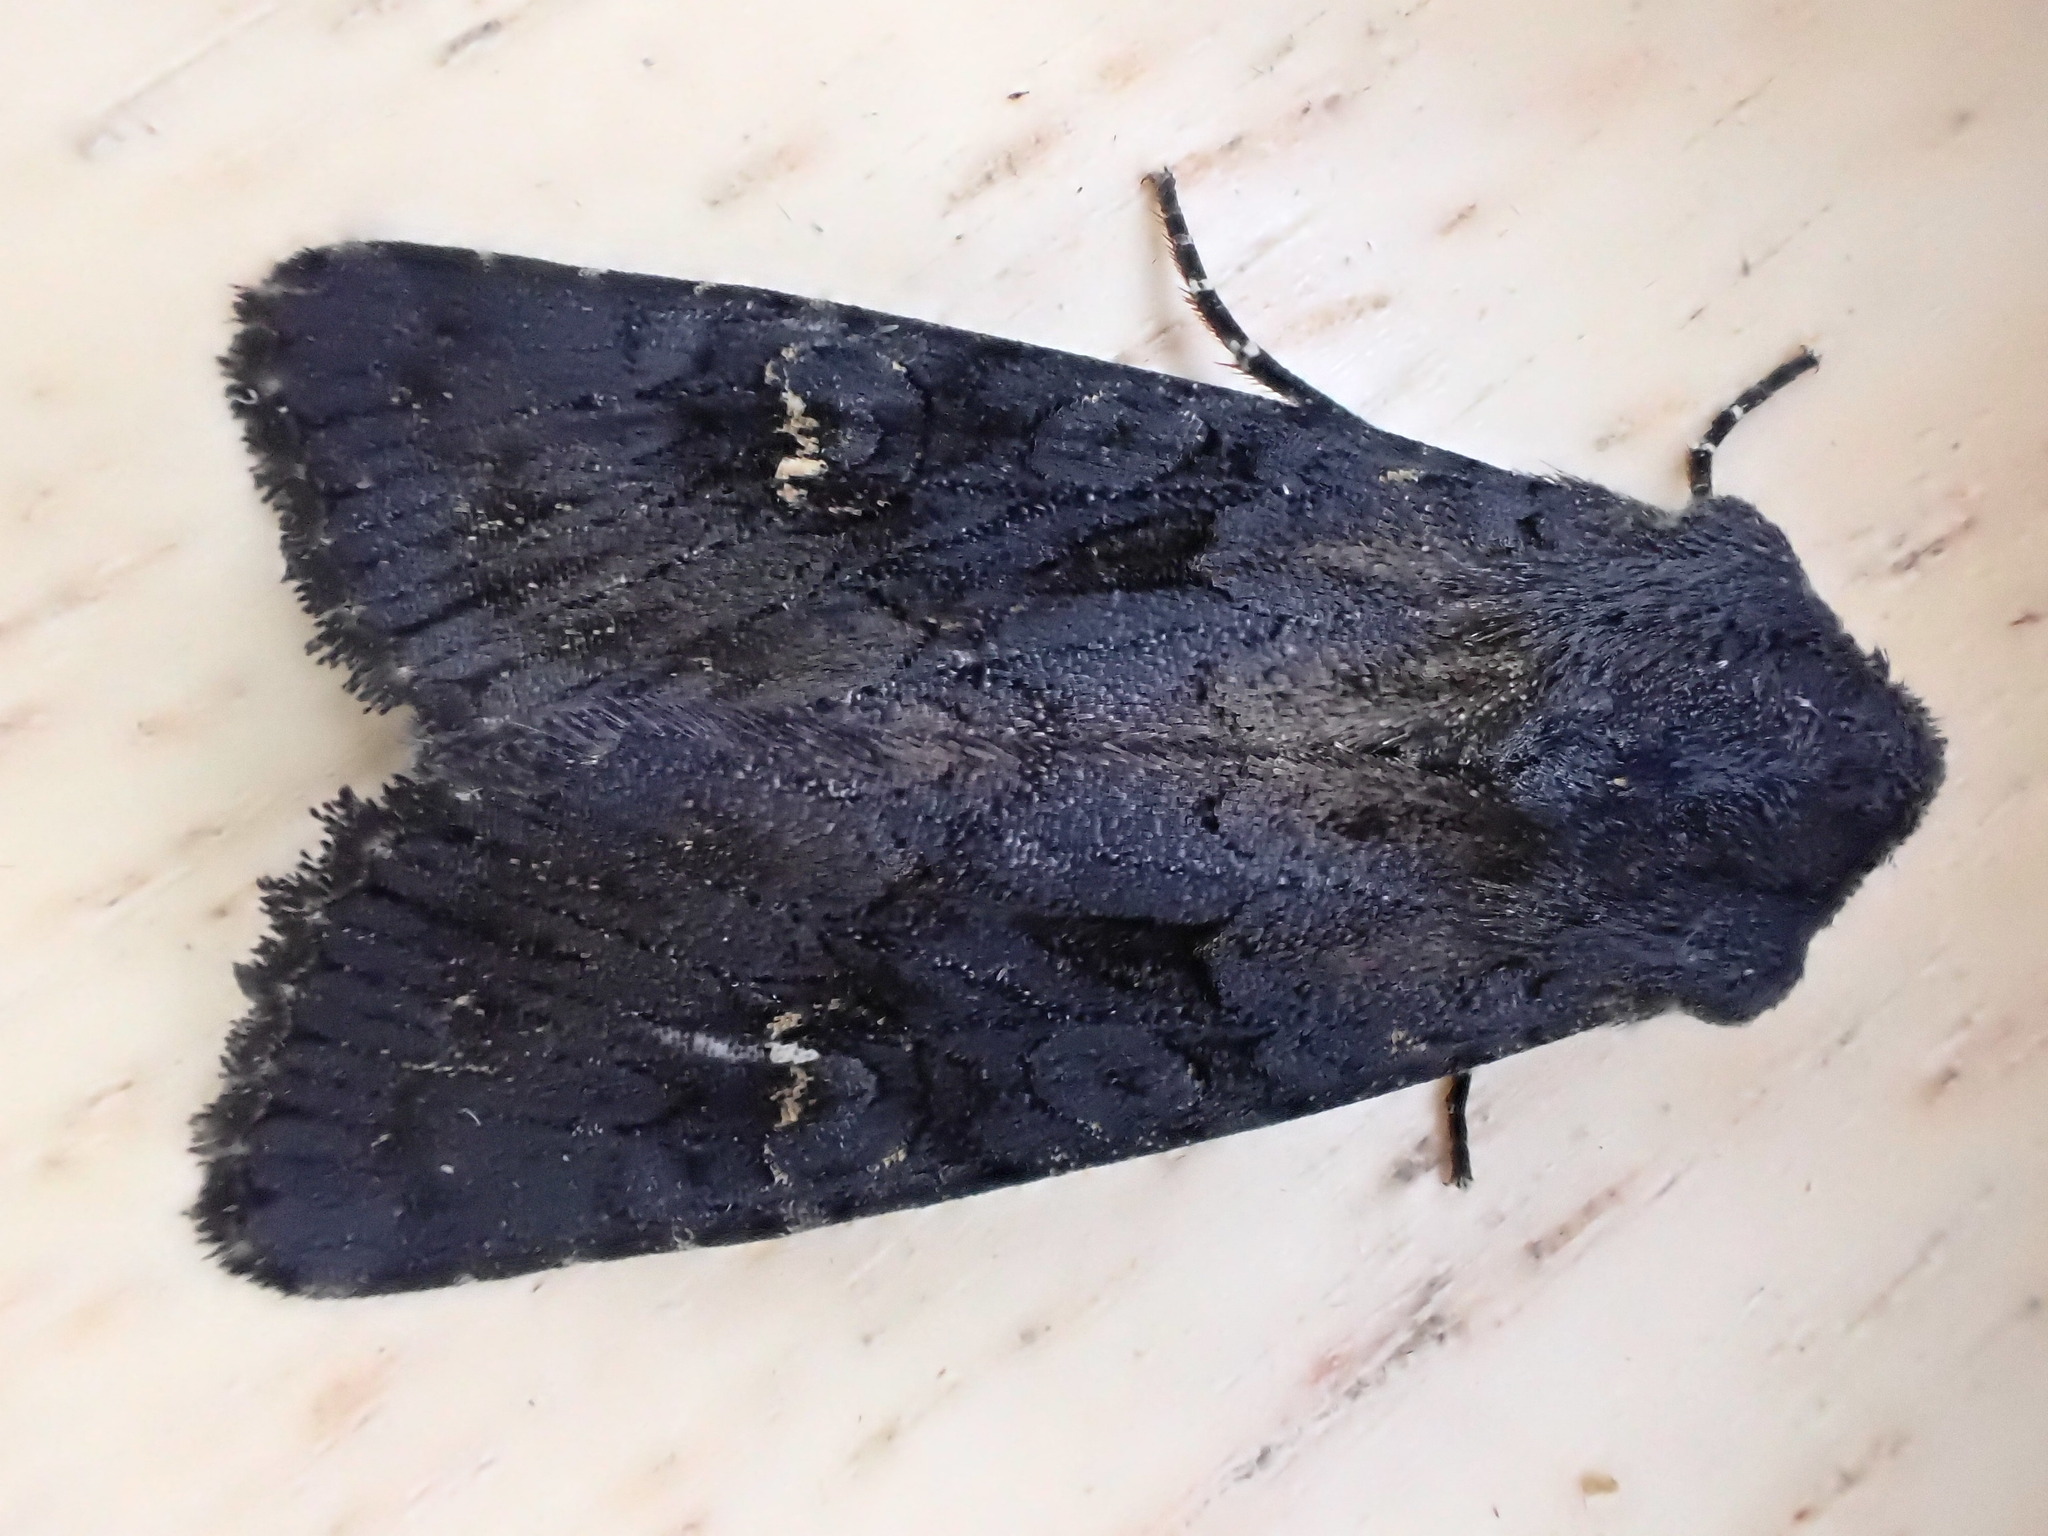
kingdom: Animalia
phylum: Arthropoda
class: Insecta
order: Lepidoptera
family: Noctuidae
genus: Aporophyla
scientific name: Aporophyla nigra
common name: Black rustic
